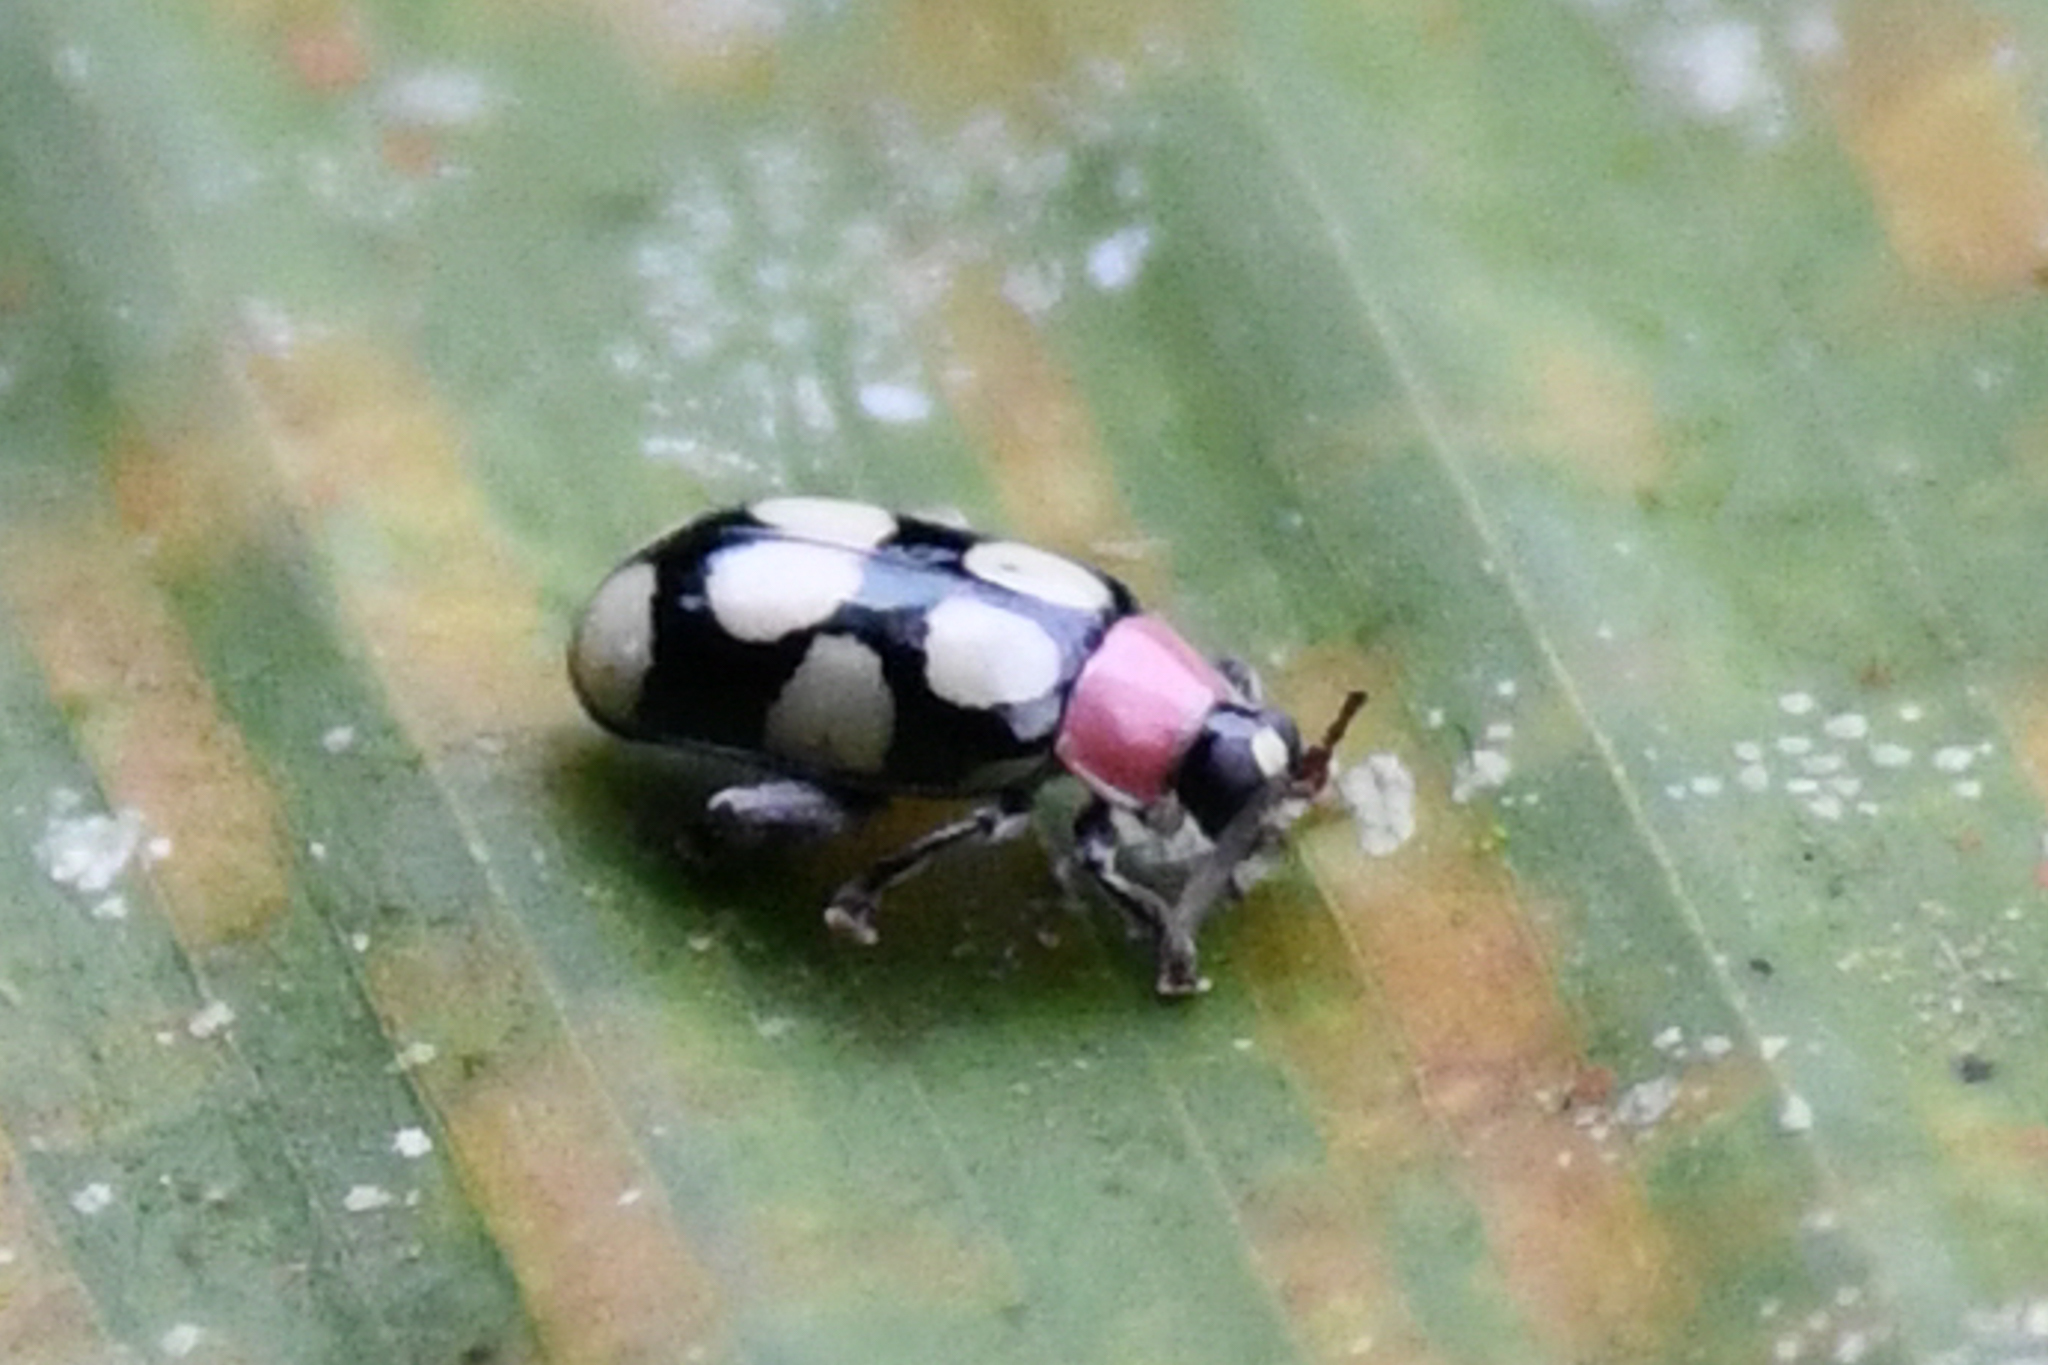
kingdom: Animalia
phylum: Arthropoda
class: Insecta
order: Coleoptera
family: Chrysomelidae
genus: Omophoita
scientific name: Omophoita aequinoctialis
